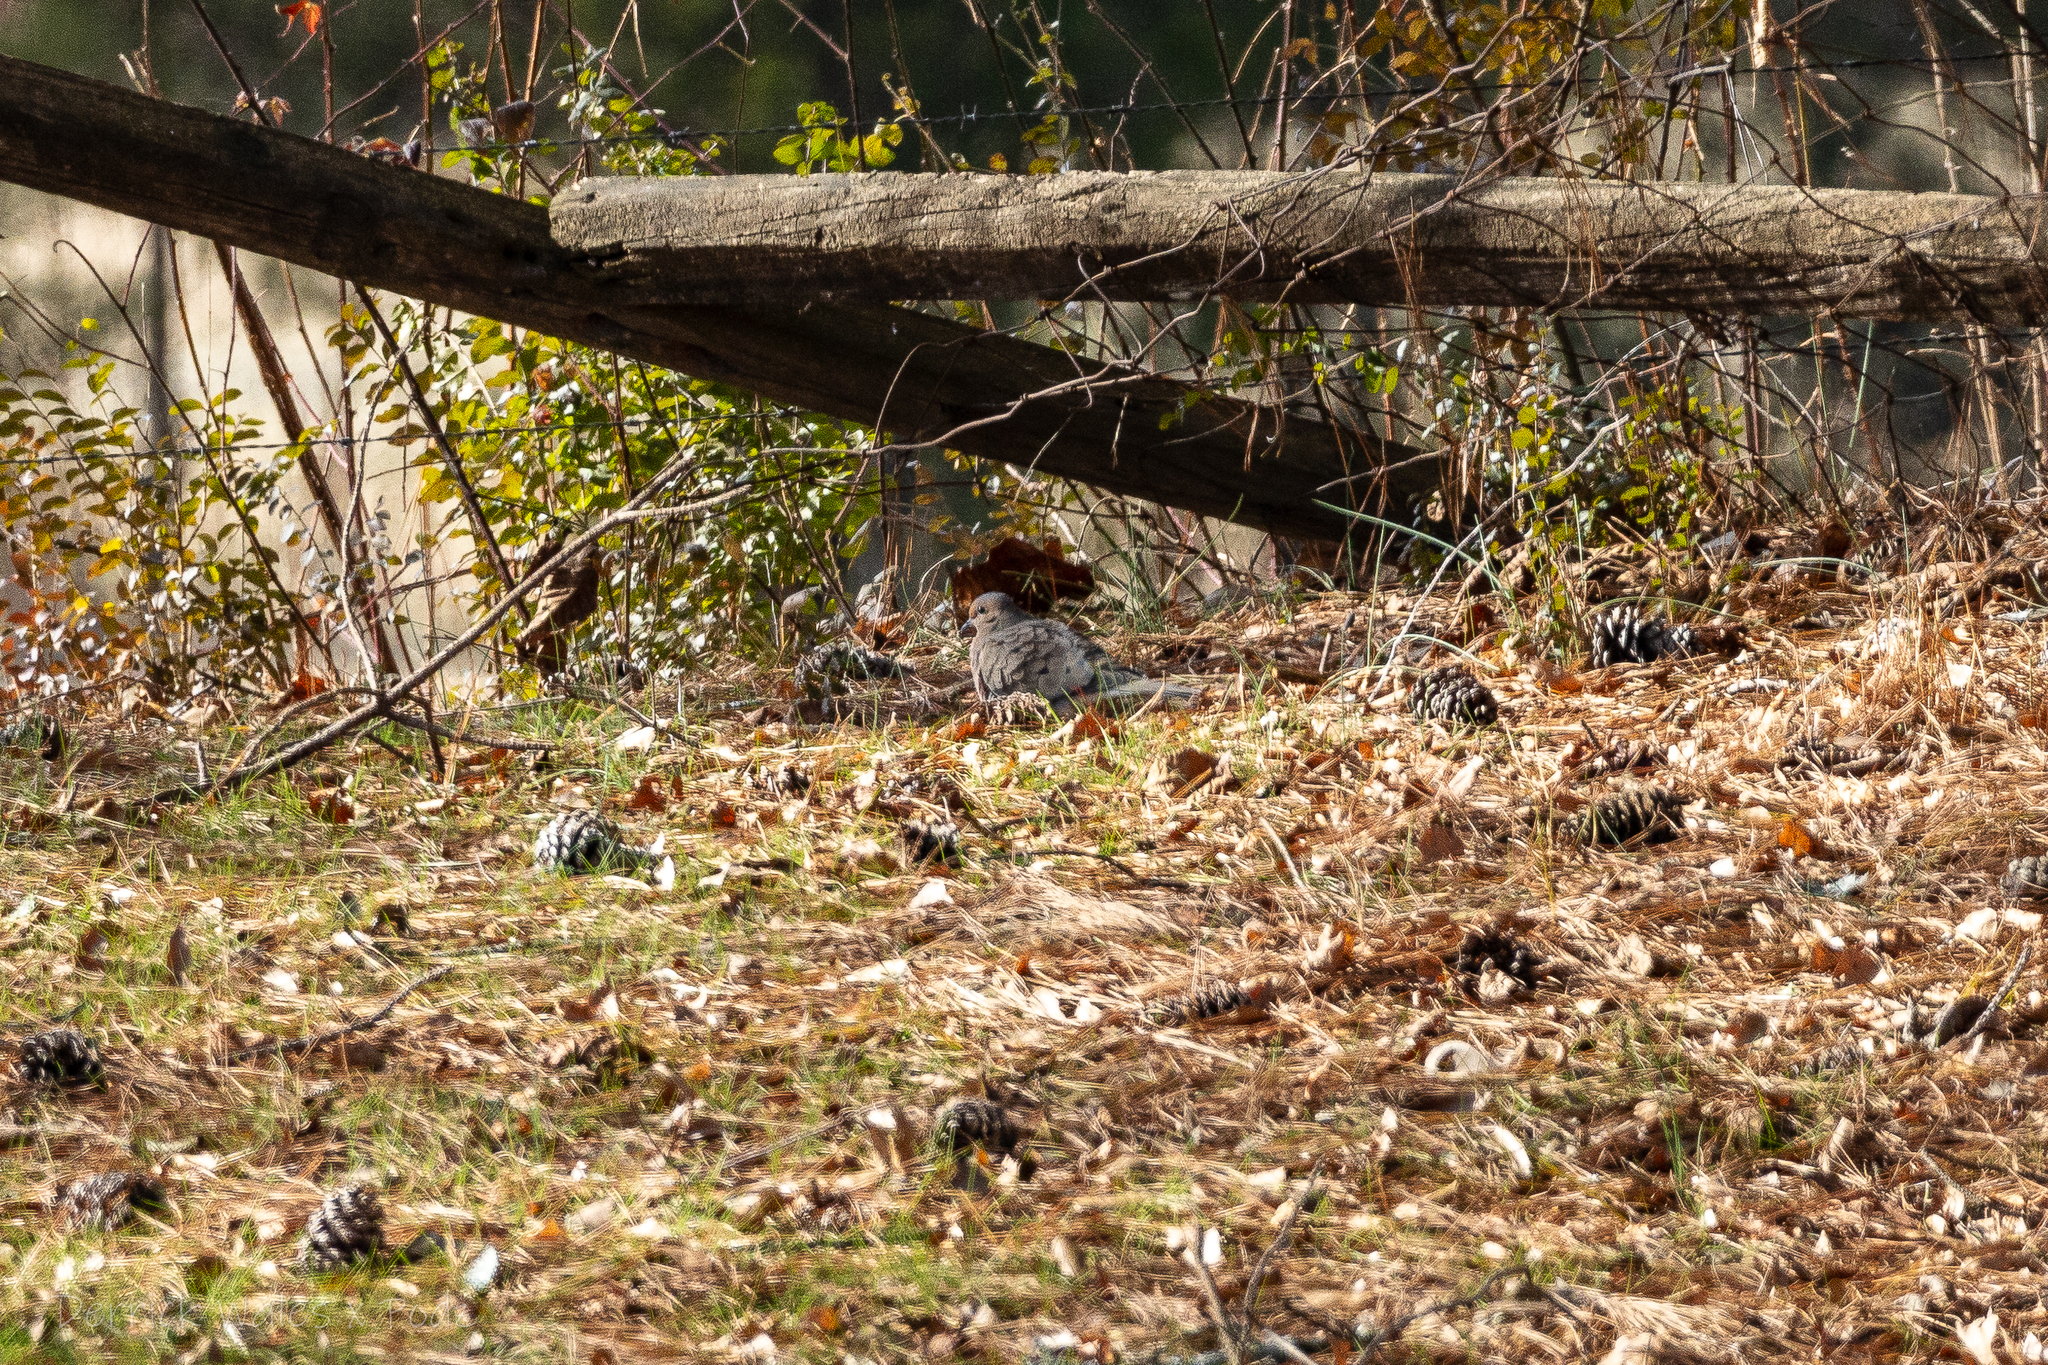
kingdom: Animalia
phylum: Chordata
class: Aves
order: Columbiformes
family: Columbidae
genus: Zenaida
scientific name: Zenaida macroura
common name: Mourning dove
